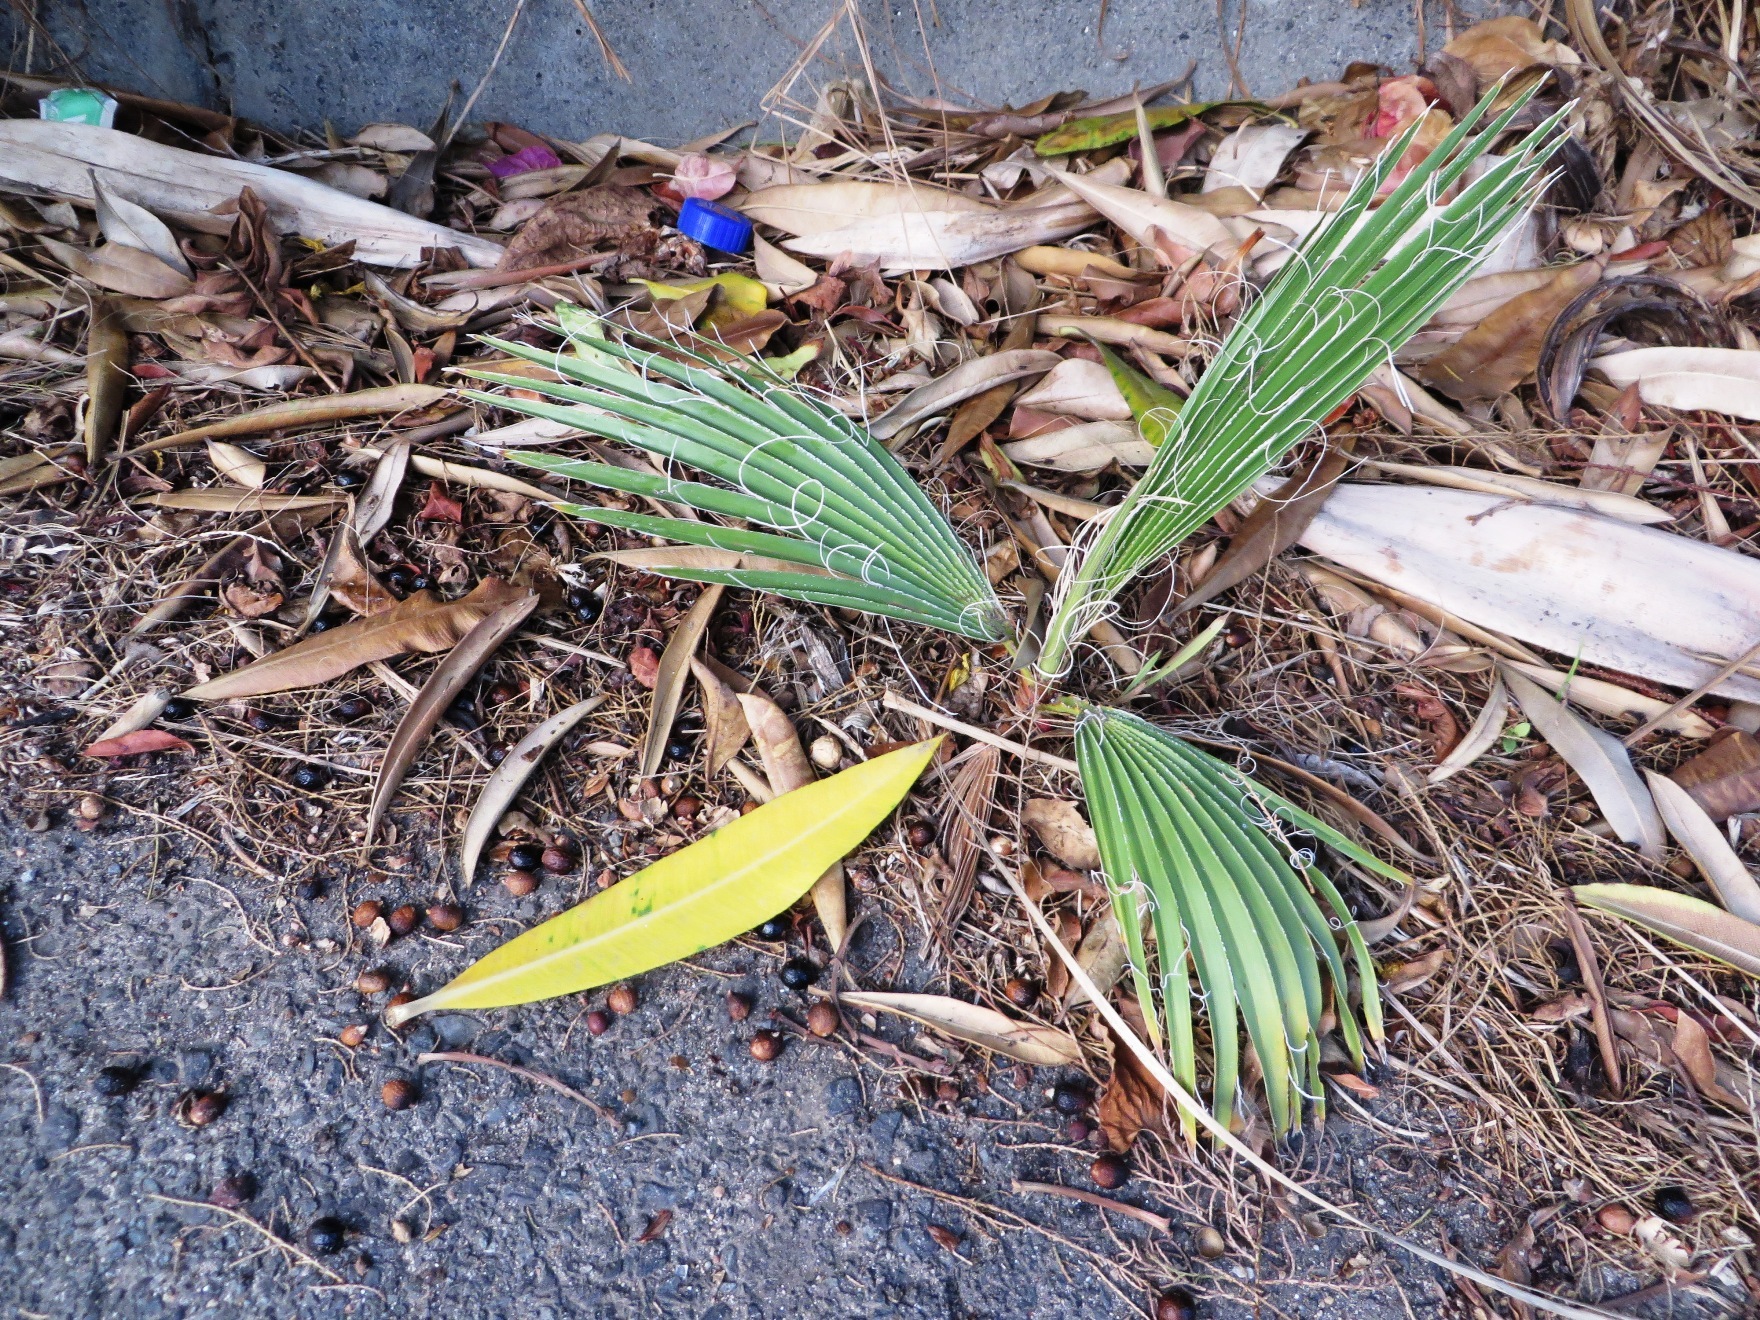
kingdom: Plantae
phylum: Tracheophyta
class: Liliopsida
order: Arecales
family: Arecaceae
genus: Washingtonia
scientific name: Washingtonia robusta
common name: Mexican fan palm
